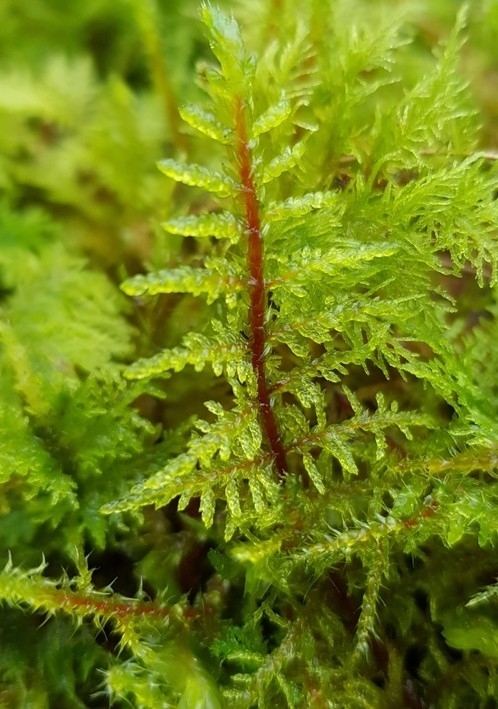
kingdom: Plantae
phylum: Bryophyta
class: Bryopsida
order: Hypnales
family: Hylocomiaceae
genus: Hylocomium
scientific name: Hylocomium splendens
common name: Stairstep moss
